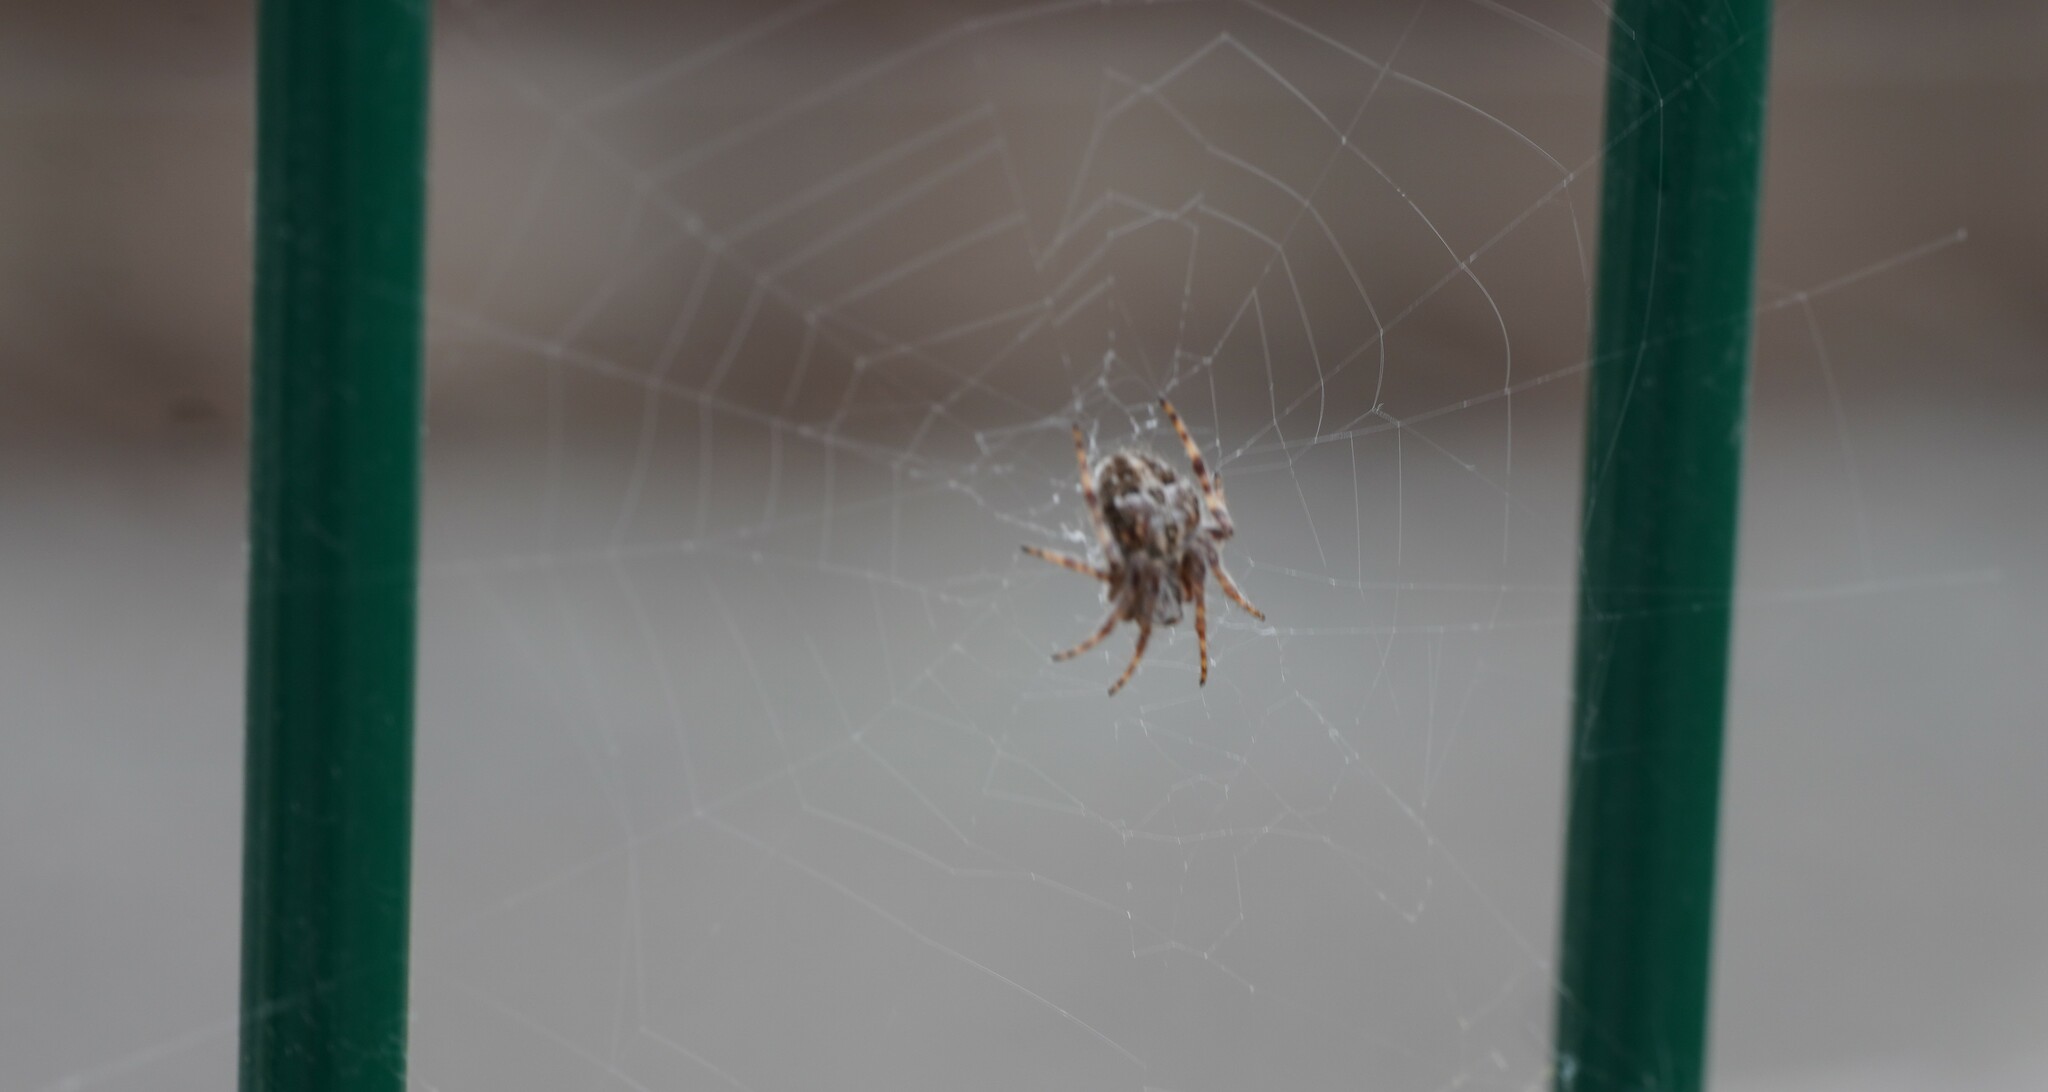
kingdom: Animalia
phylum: Arthropoda
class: Arachnida
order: Araneae
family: Araneidae
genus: Agalenatea
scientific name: Agalenatea redii
